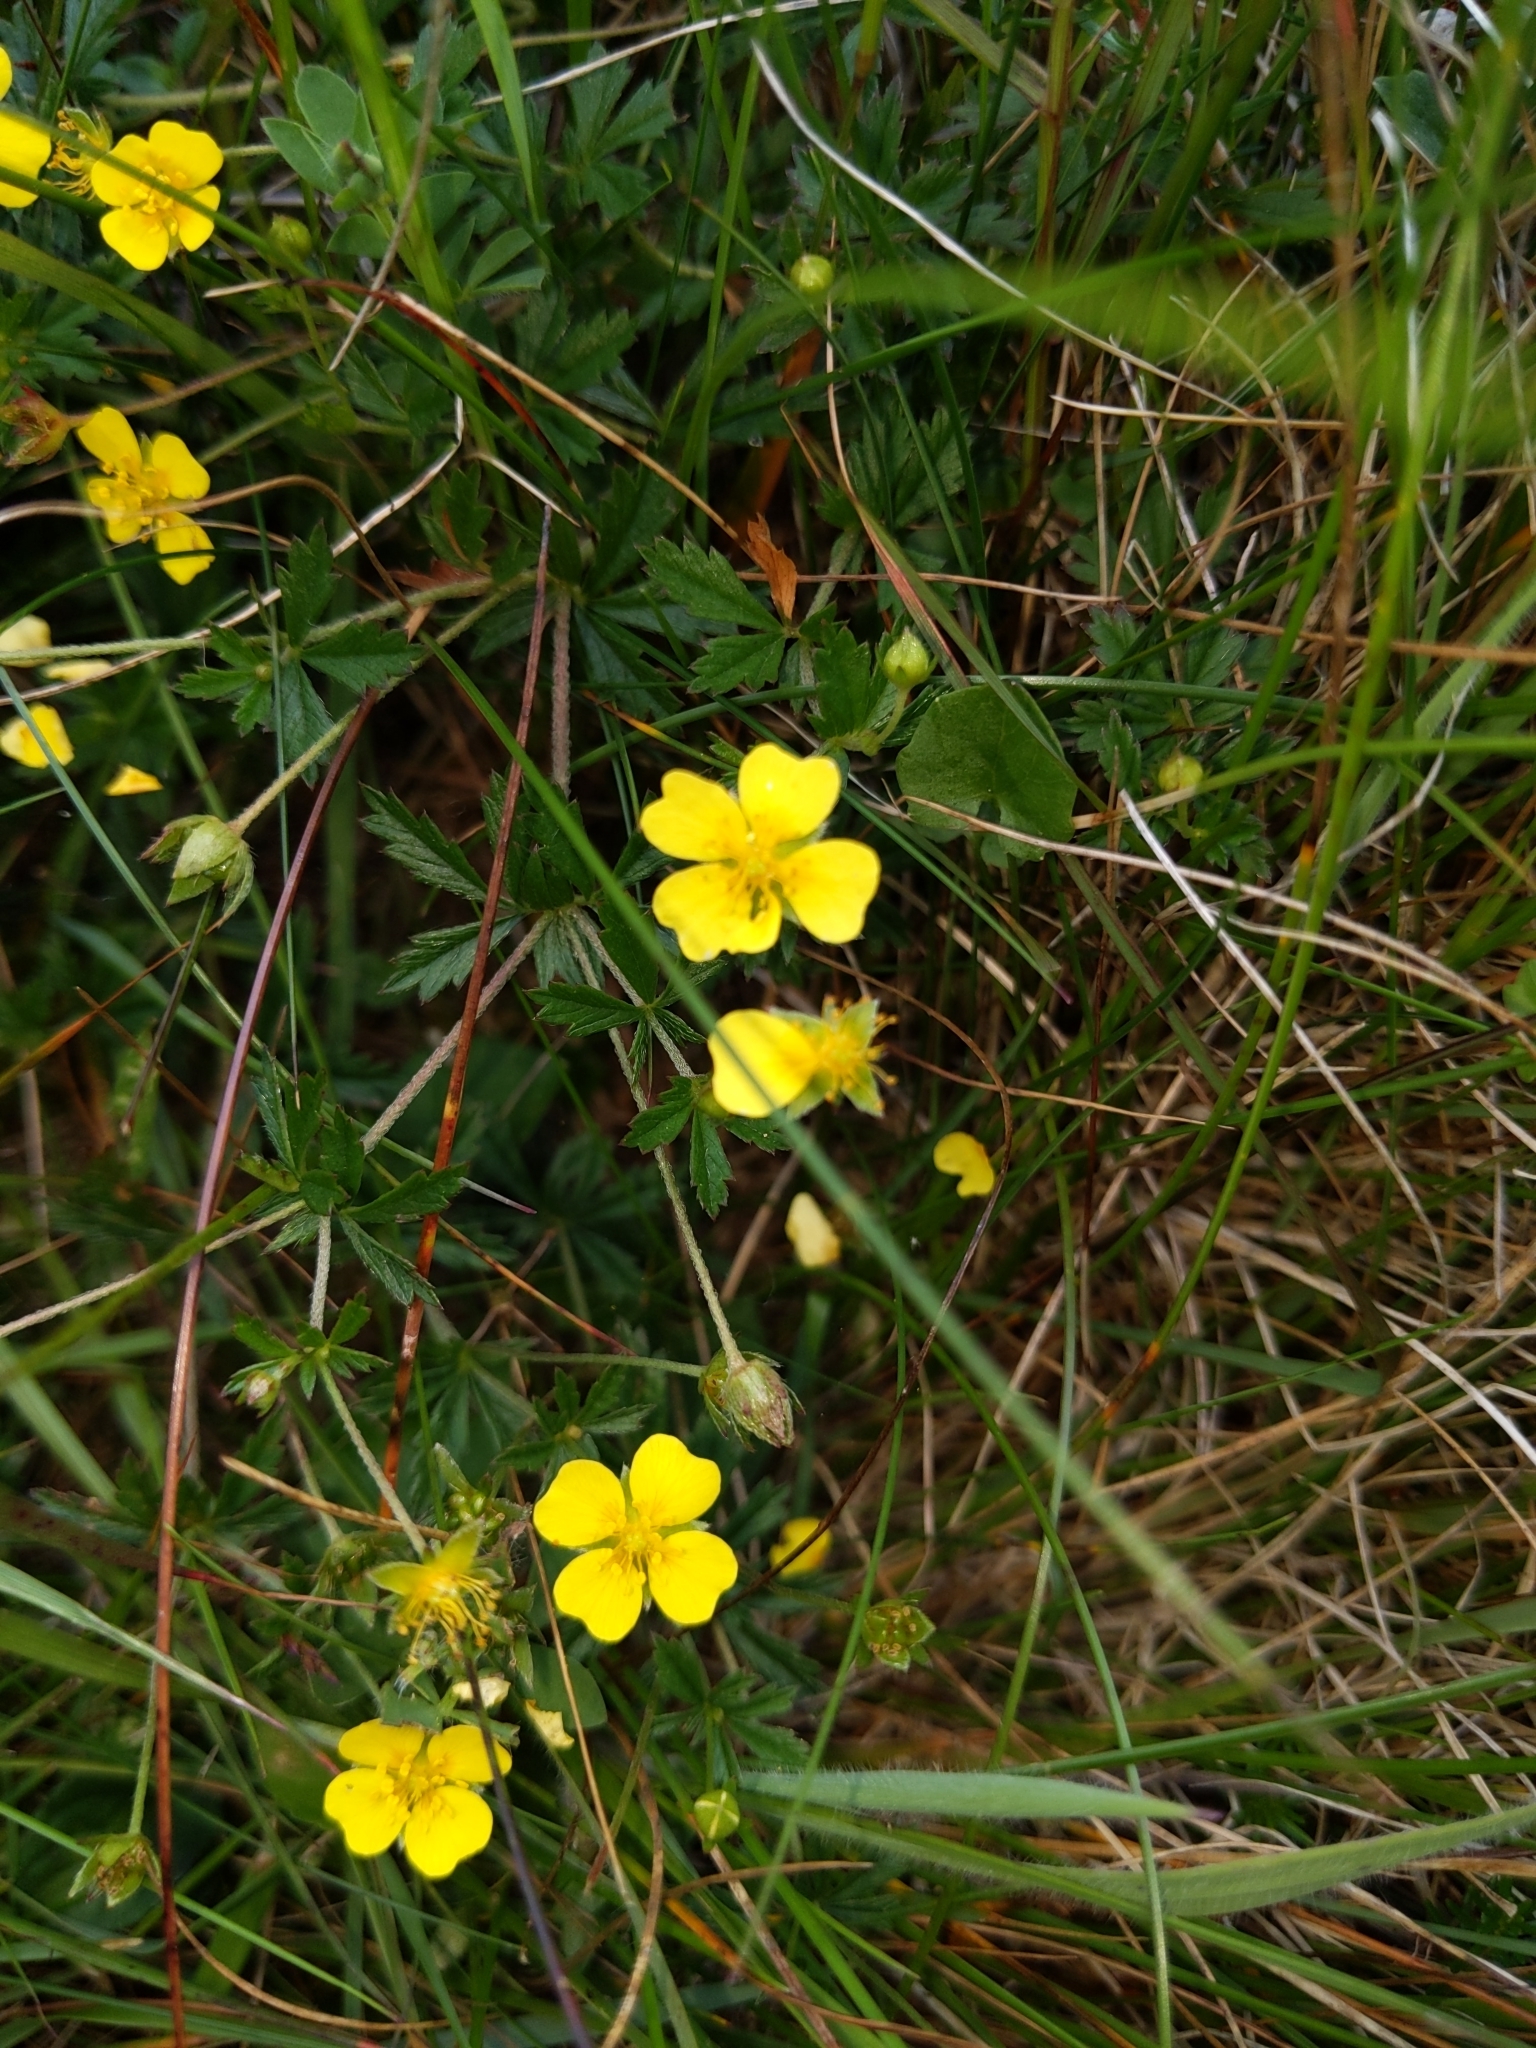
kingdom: Plantae
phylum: Tracheophyta
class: Magnoliopsida
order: Rosales
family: Rosaceae
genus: Potentilla
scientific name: Potentilla erecta
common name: Tormentil
